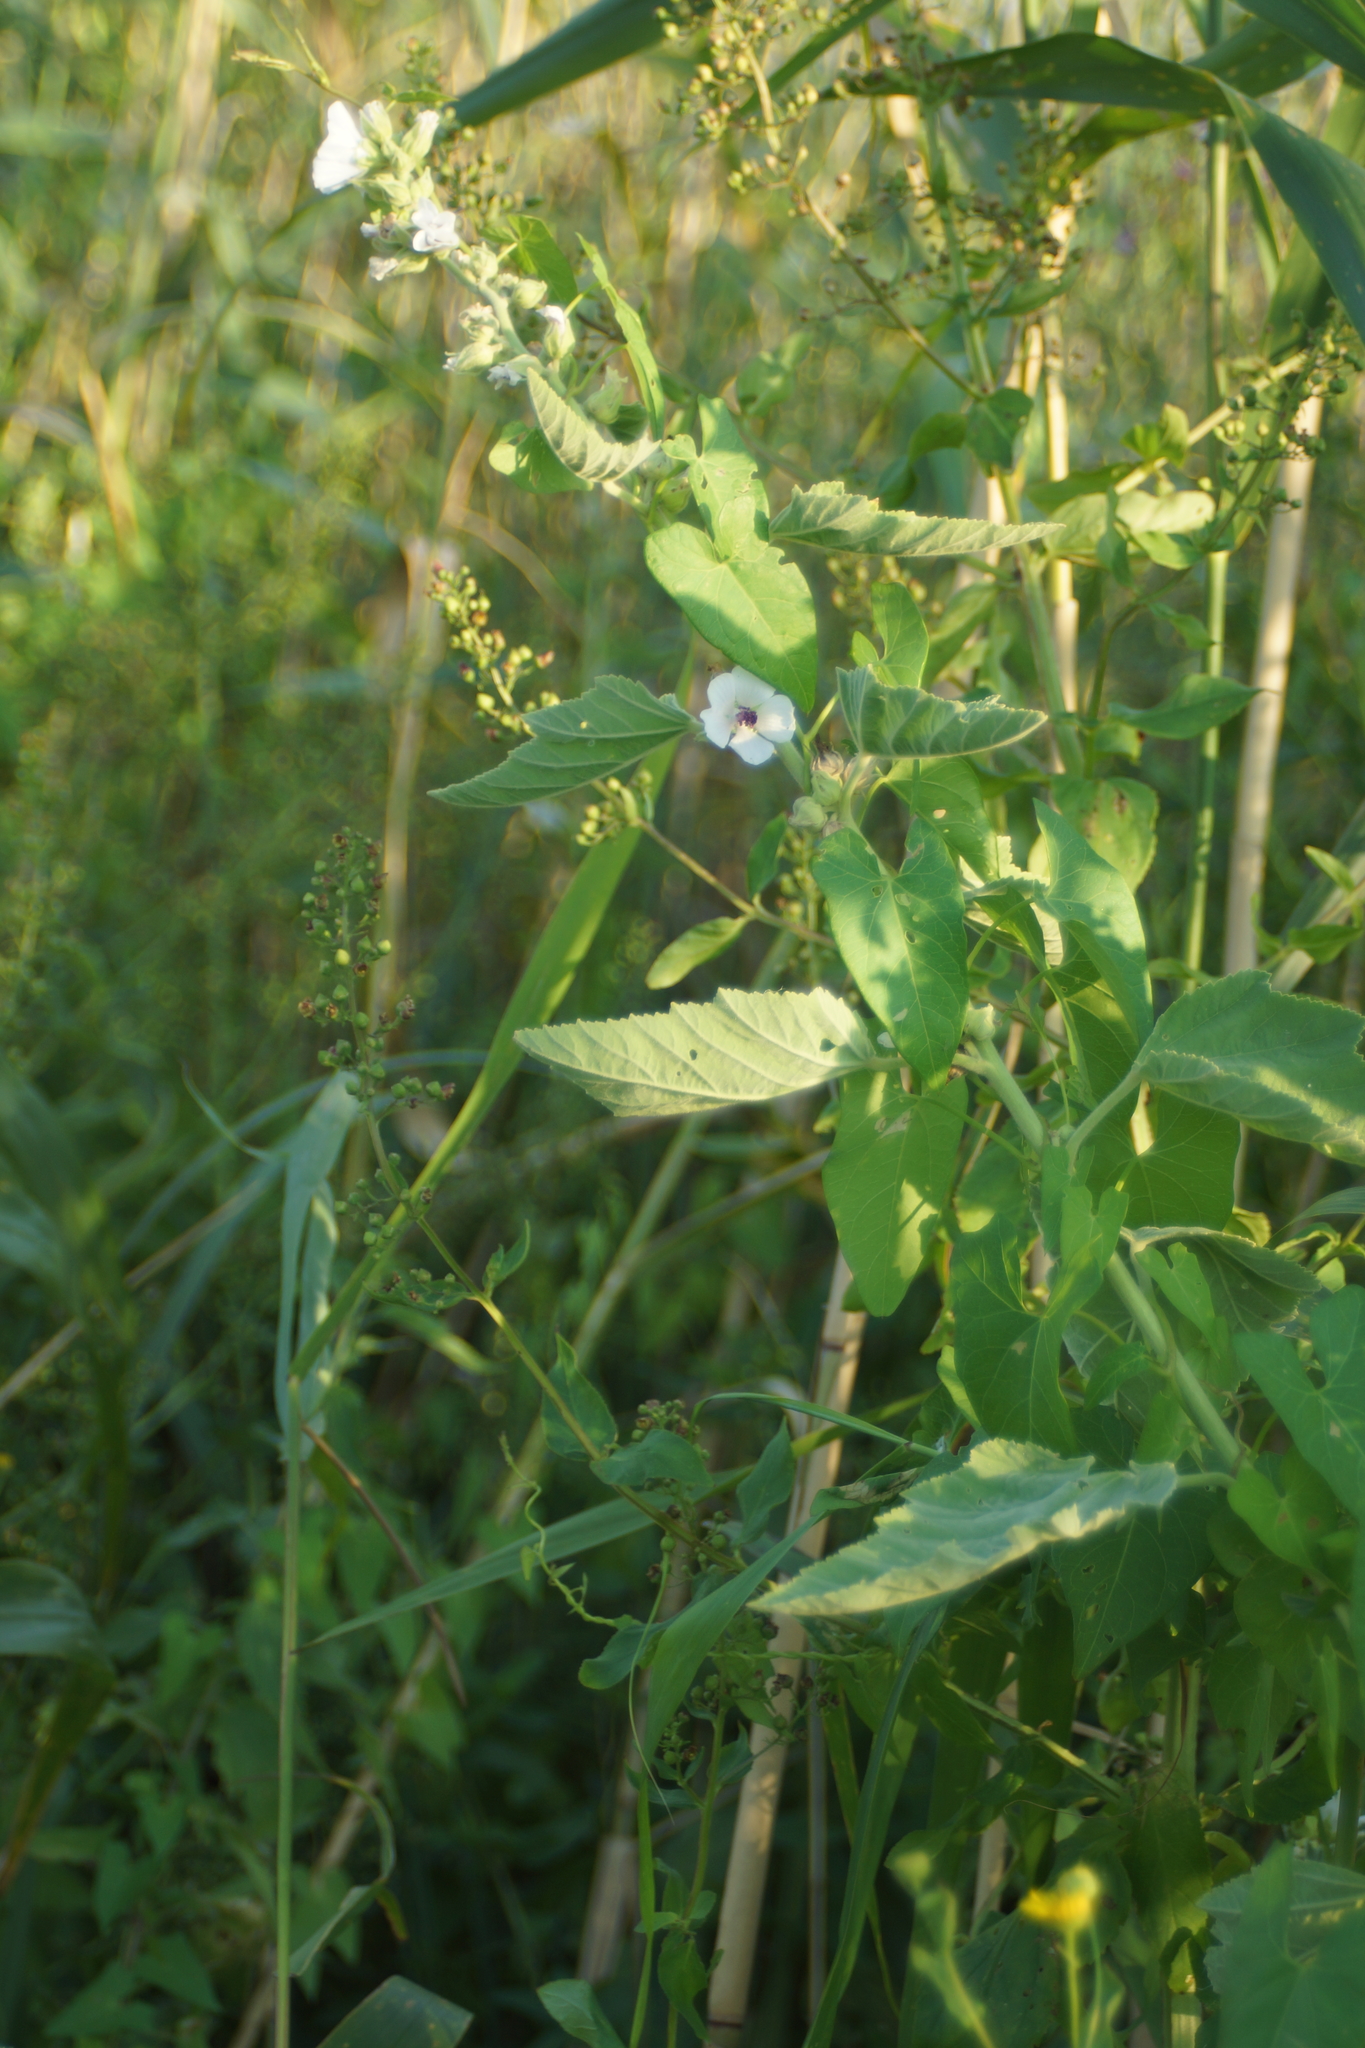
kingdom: Plantae
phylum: Tracheophyta
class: Magnoliopsida
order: Malvales
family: Malvaceae
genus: Althaea
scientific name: Althaea officinalis
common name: Marsh-mallow
